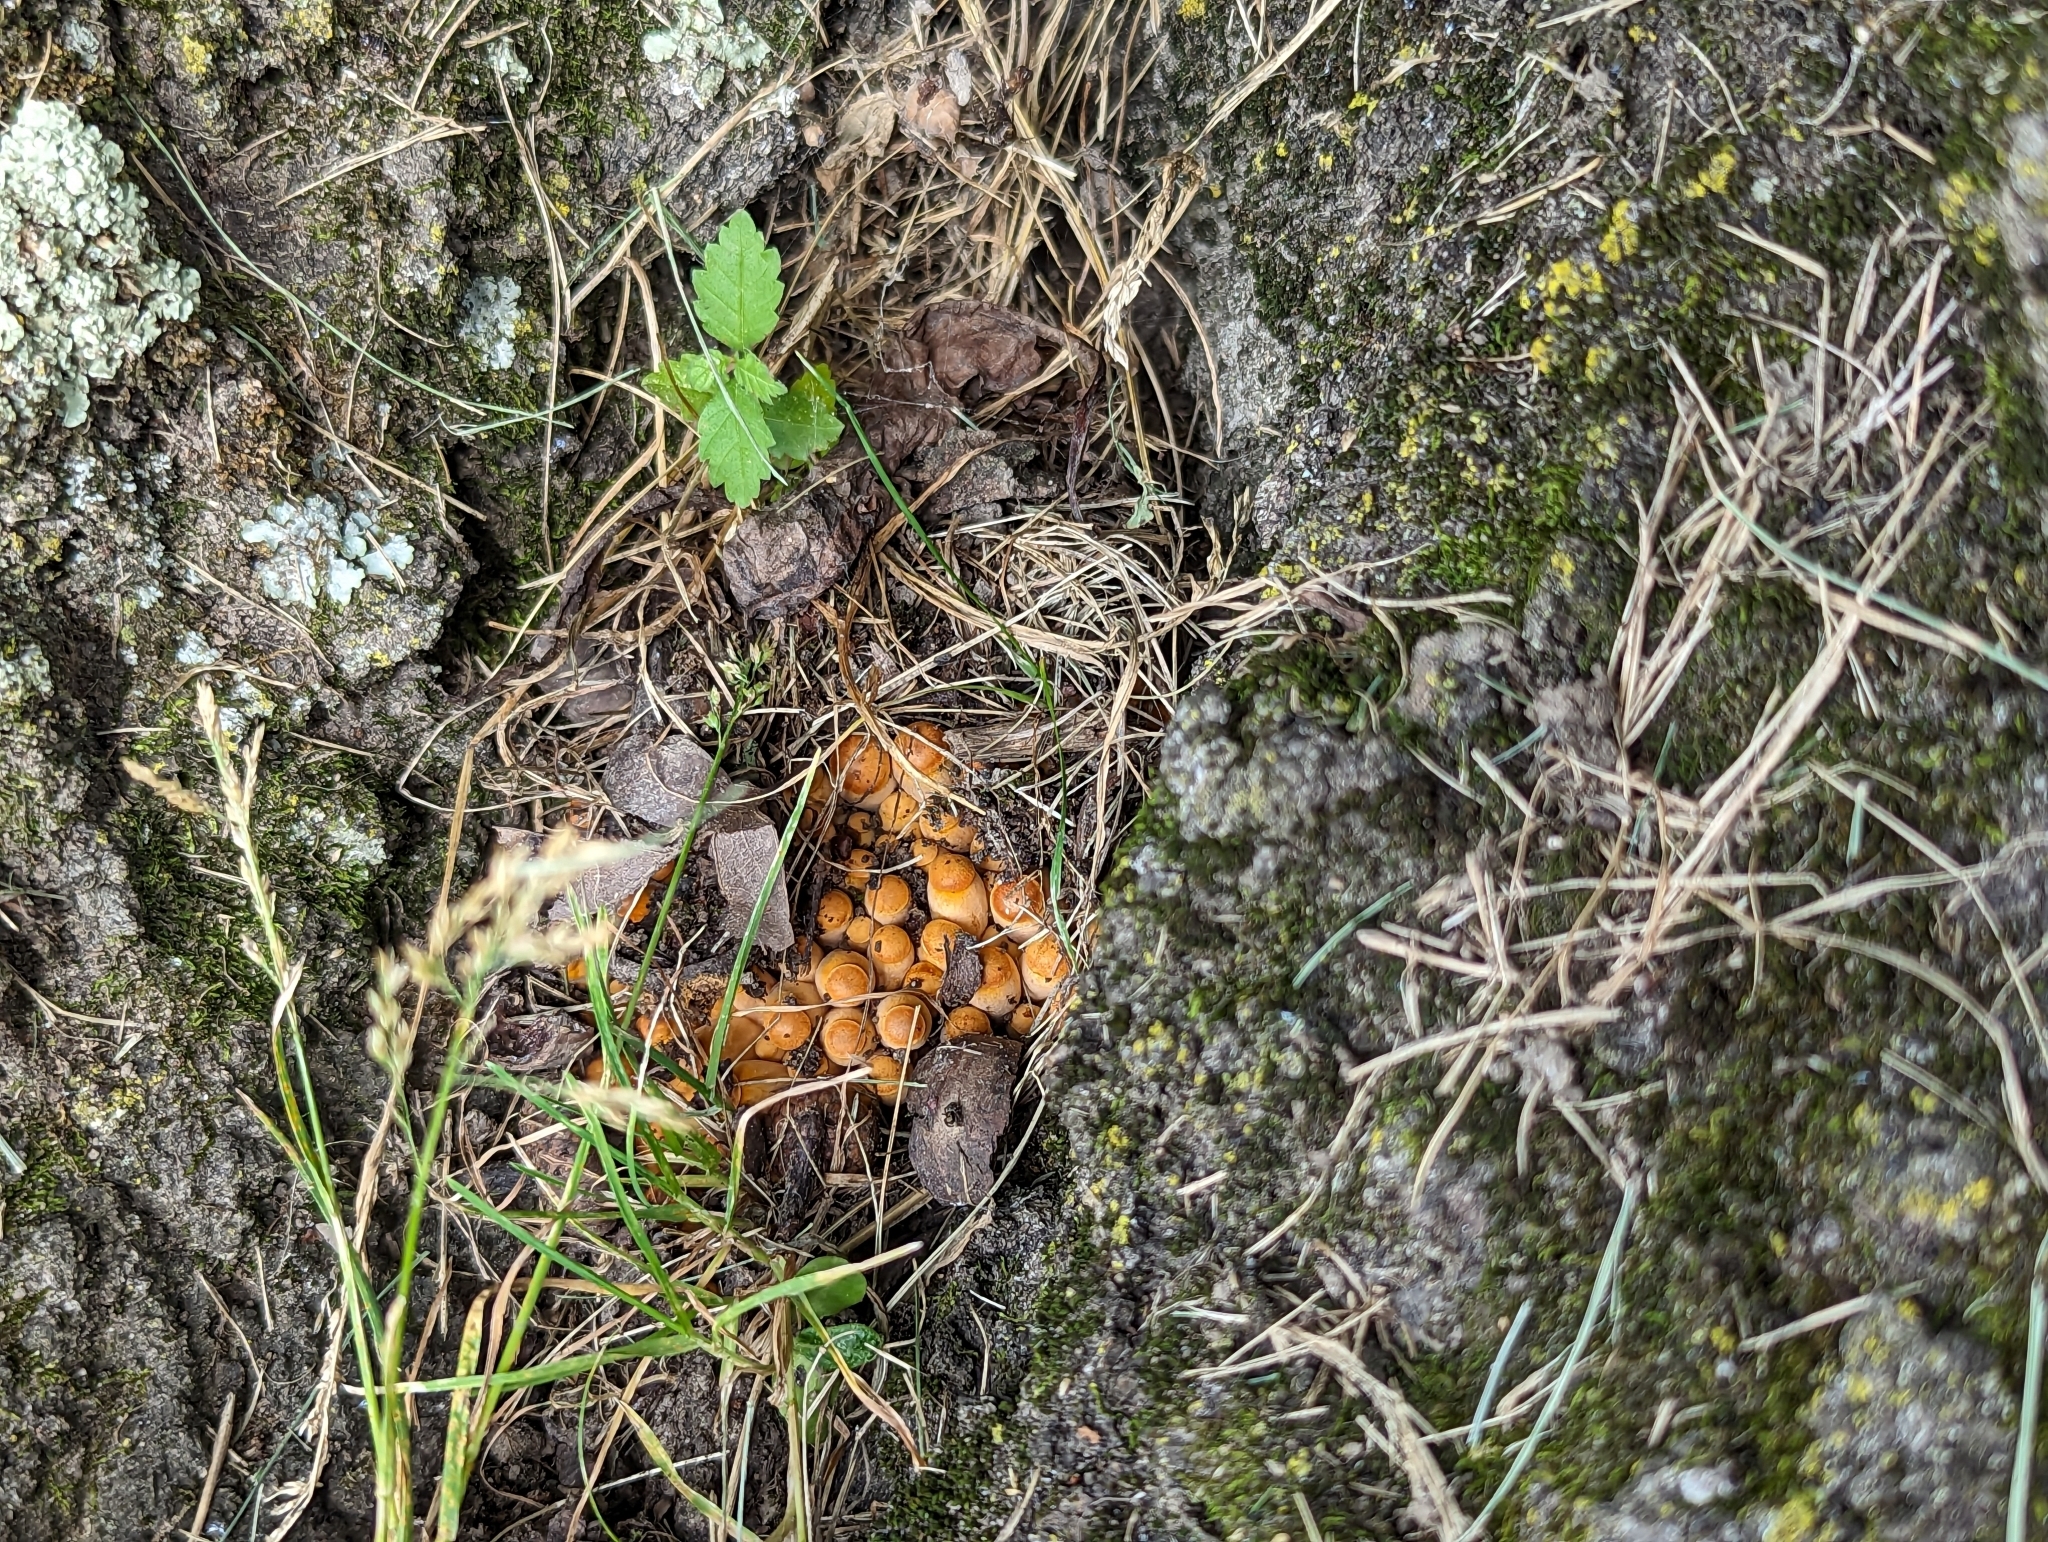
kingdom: Fungi
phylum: Basidiomycota
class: Agaricomycetes
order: Agaricales
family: Omphalotaceae
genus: Omphalotus
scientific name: Omphalotus illudens
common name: Jack o lantern
